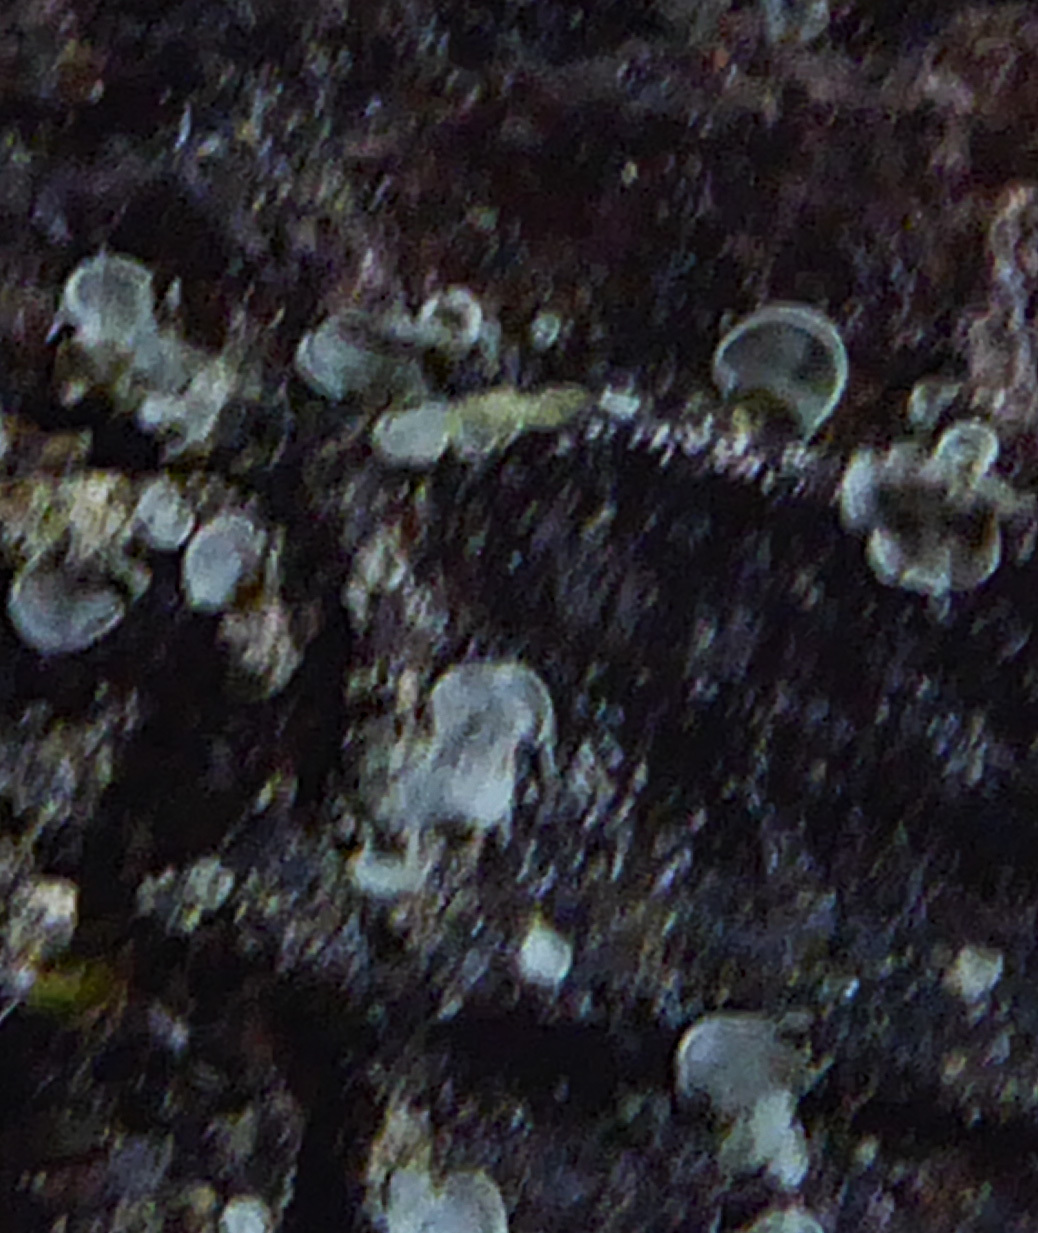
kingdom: Fungi
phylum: Ascomycota
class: Eurotiomycetes
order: Verrucariales
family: Verrucariaceae
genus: Normandina
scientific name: Normandina pulchella
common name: Elf ears lichen
